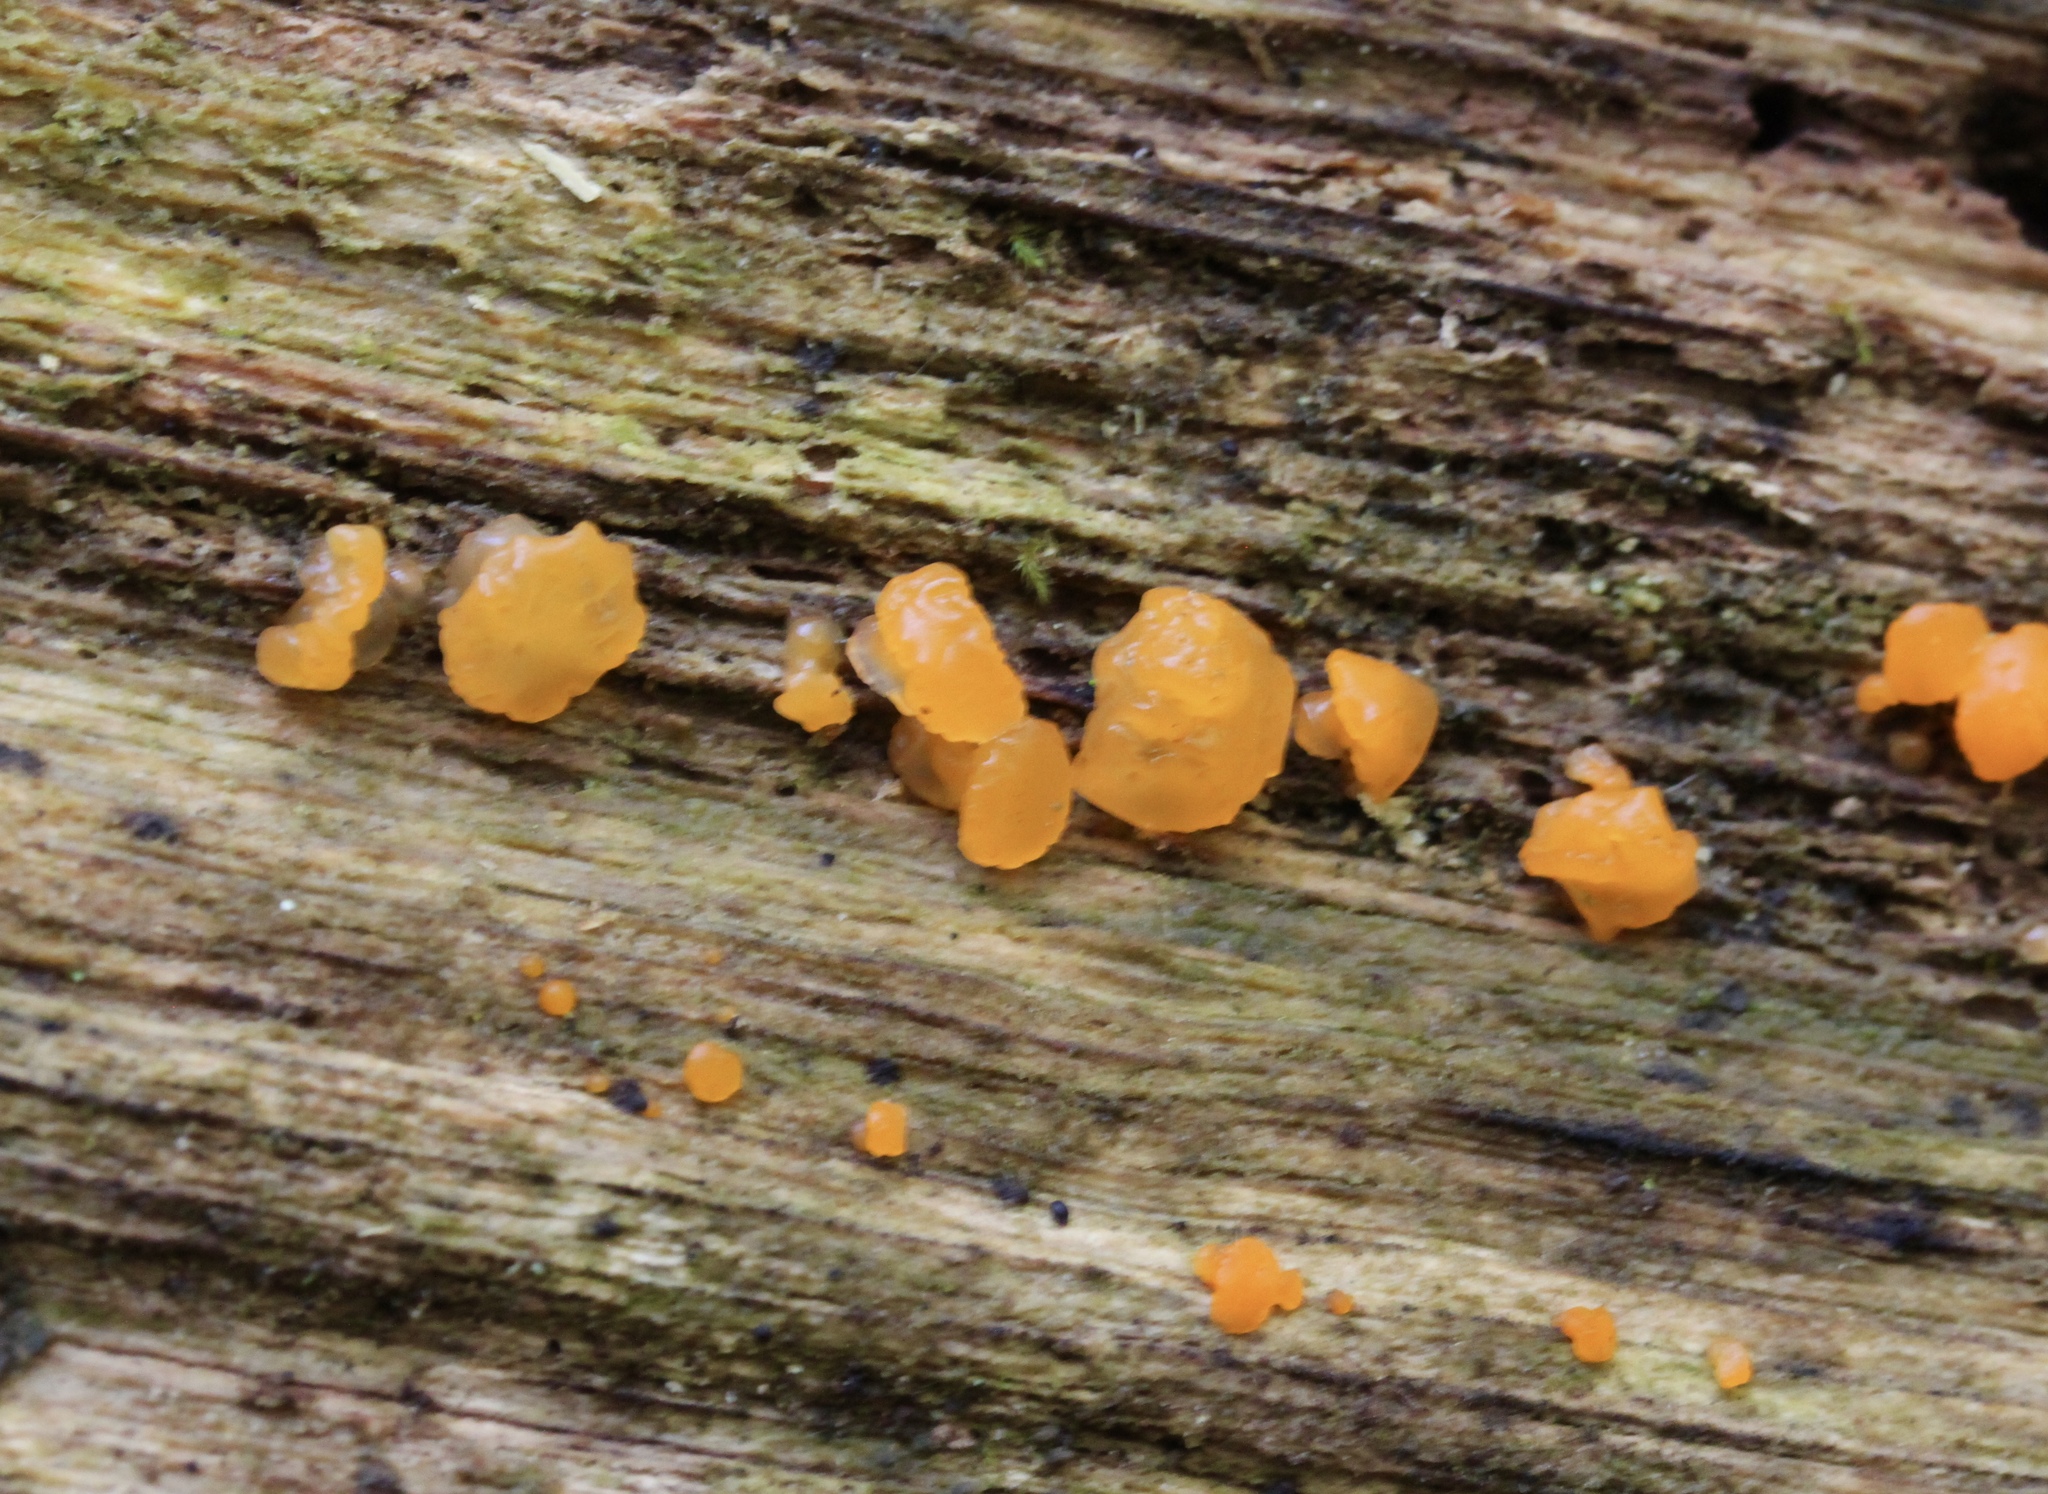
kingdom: Fungi
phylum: Basidiomycota
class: Dacrymycetes
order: Dacrymycetales
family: Dacrymycetaceae
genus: Dacrymyces
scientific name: Dacrymyces chrysospermus
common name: Orange jelly spot
